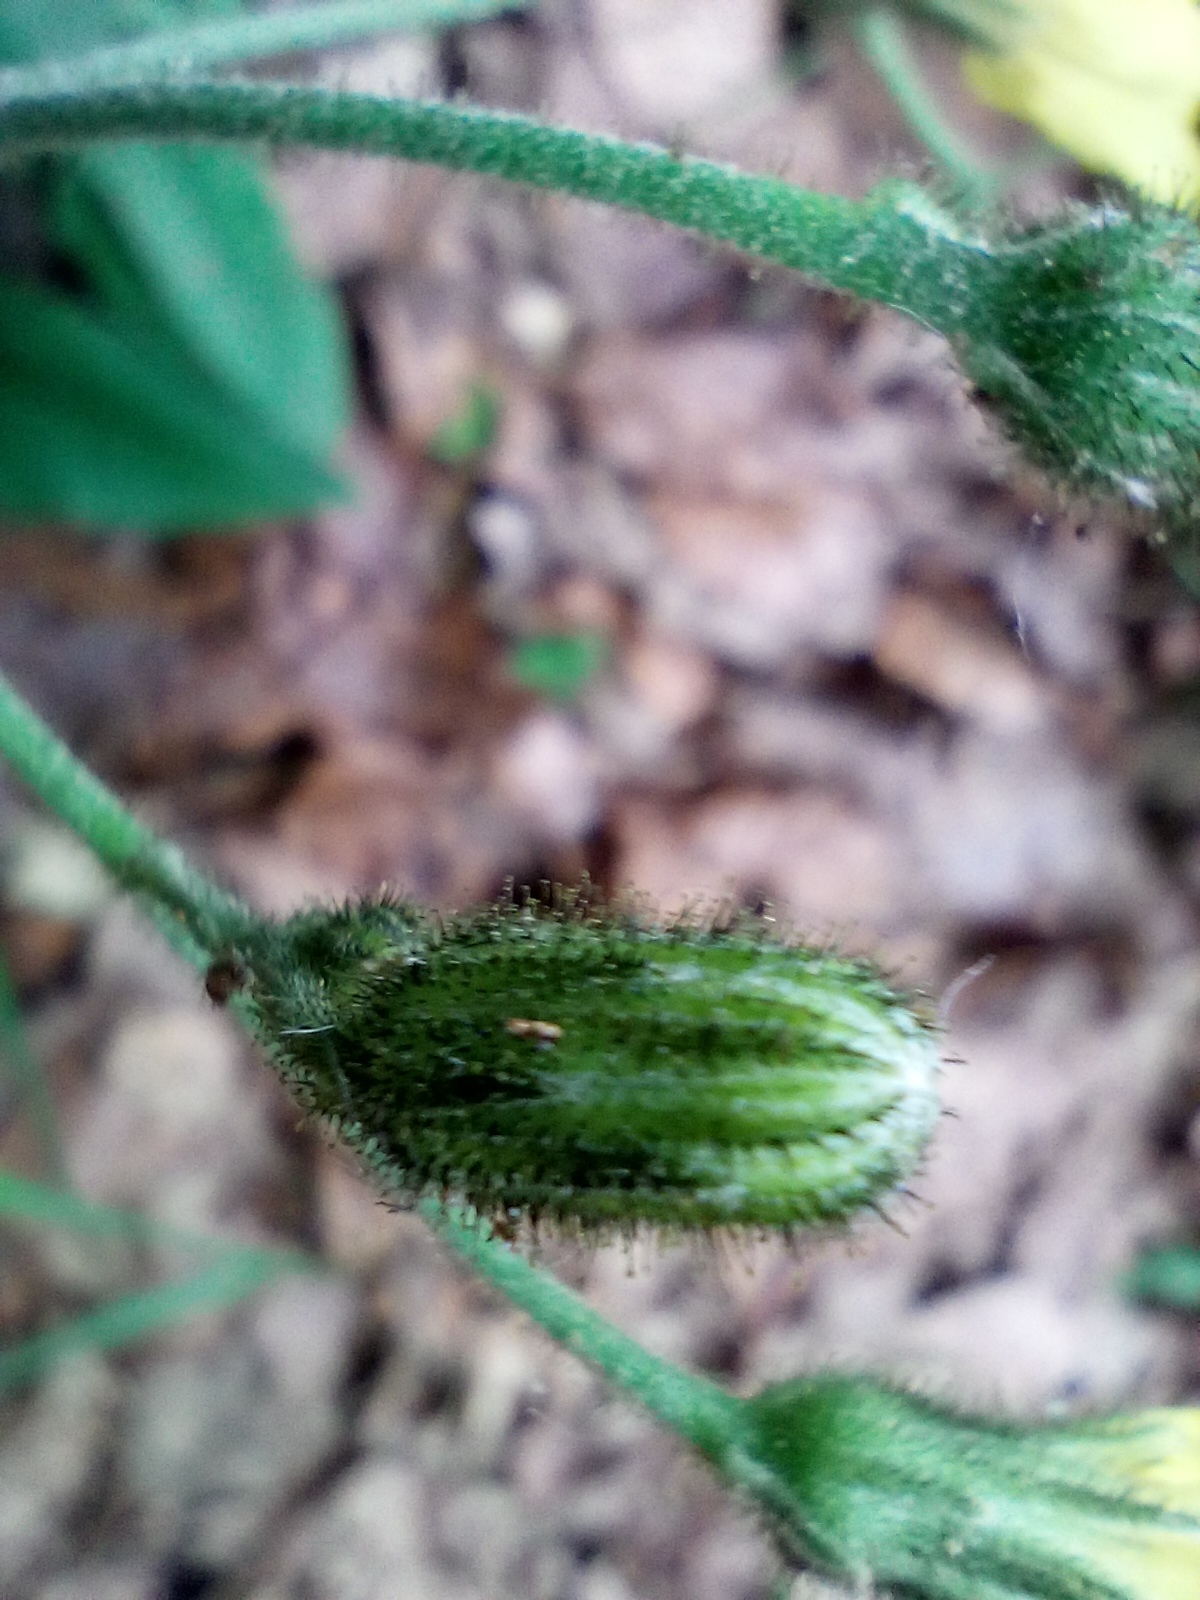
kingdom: Plantae
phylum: Tracheophyta
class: Magnoliopsida
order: Asterales
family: Asteraceae
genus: Hieracium
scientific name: Hieracium murorum
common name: Wall hawkweed
